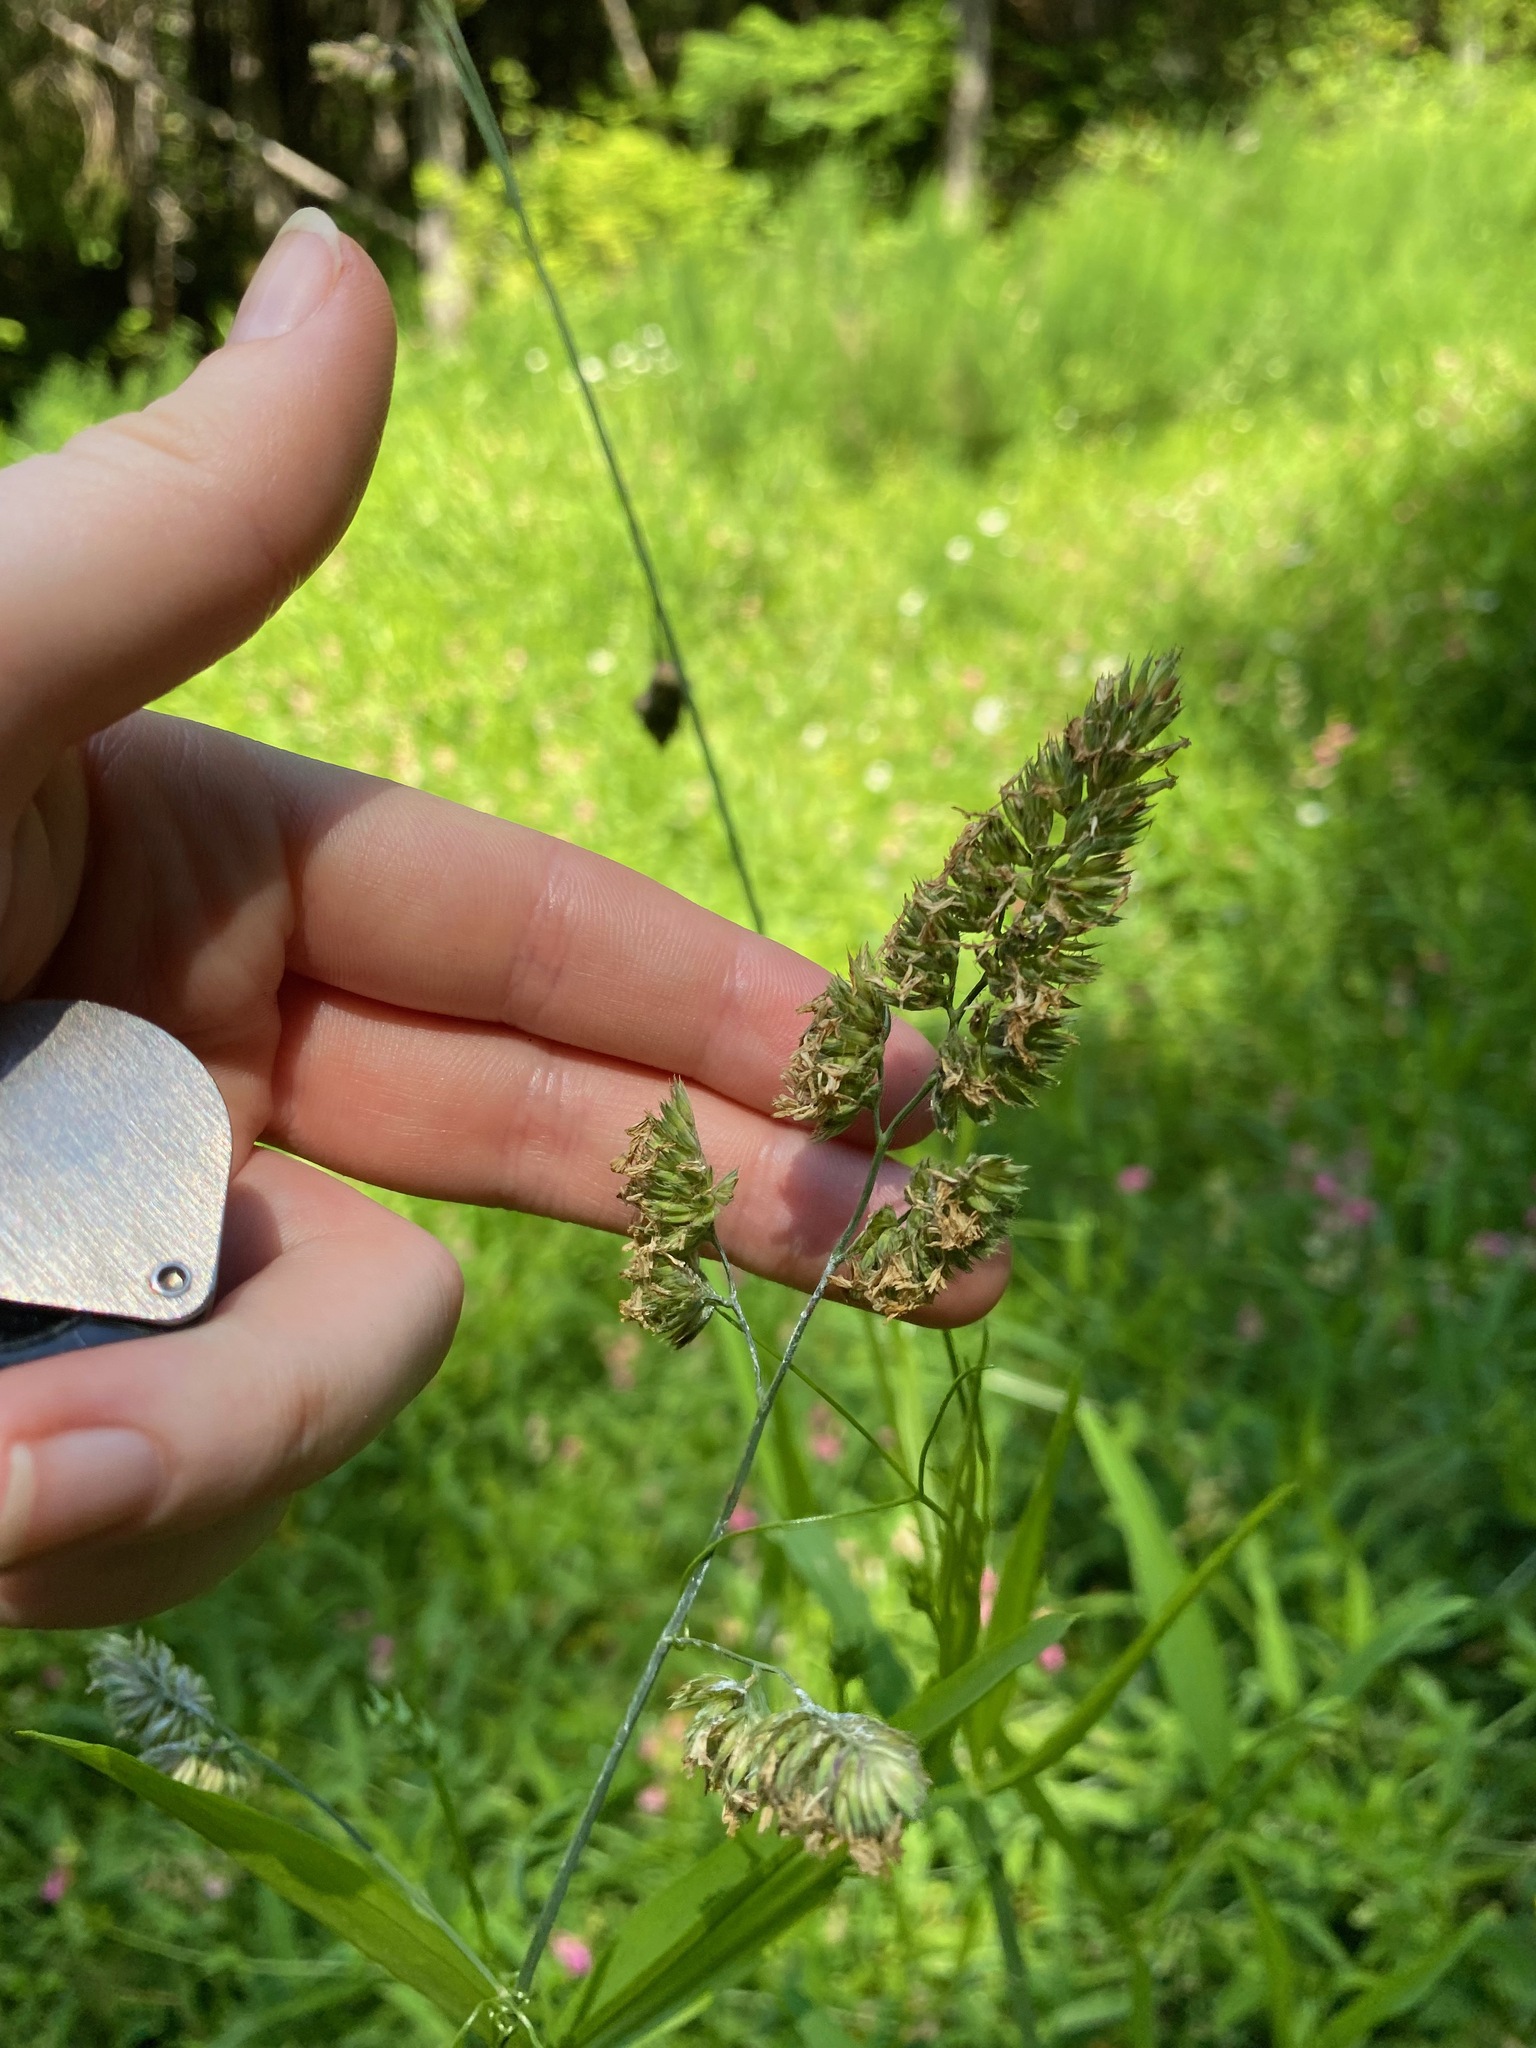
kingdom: Plantae
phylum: Tracheophyta
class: Liliopsida
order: Poales
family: Poaceae
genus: Dactylis
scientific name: Dactylis glomerata
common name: Orchardgrass
